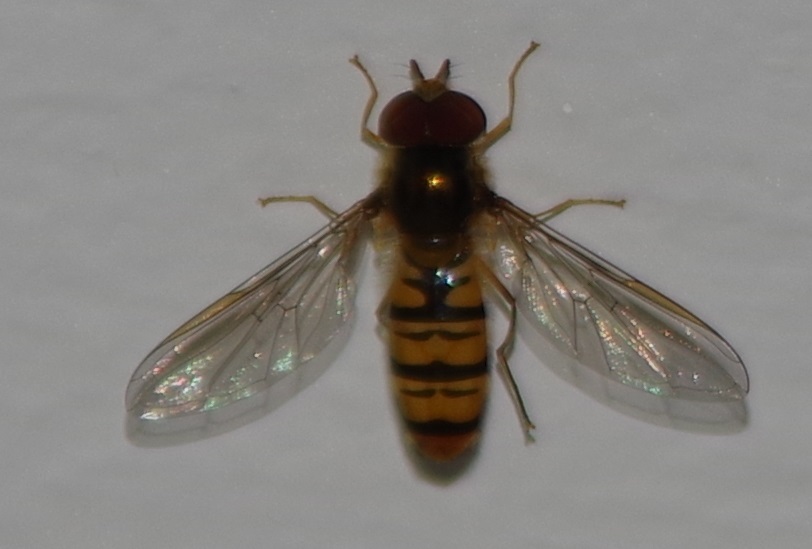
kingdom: Animalia
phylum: Arthropoda
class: Insecta
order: Diptera
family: Syrphidae
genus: Episyrphus
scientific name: Episyrphus balteatus
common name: Marmalade hoverfly
